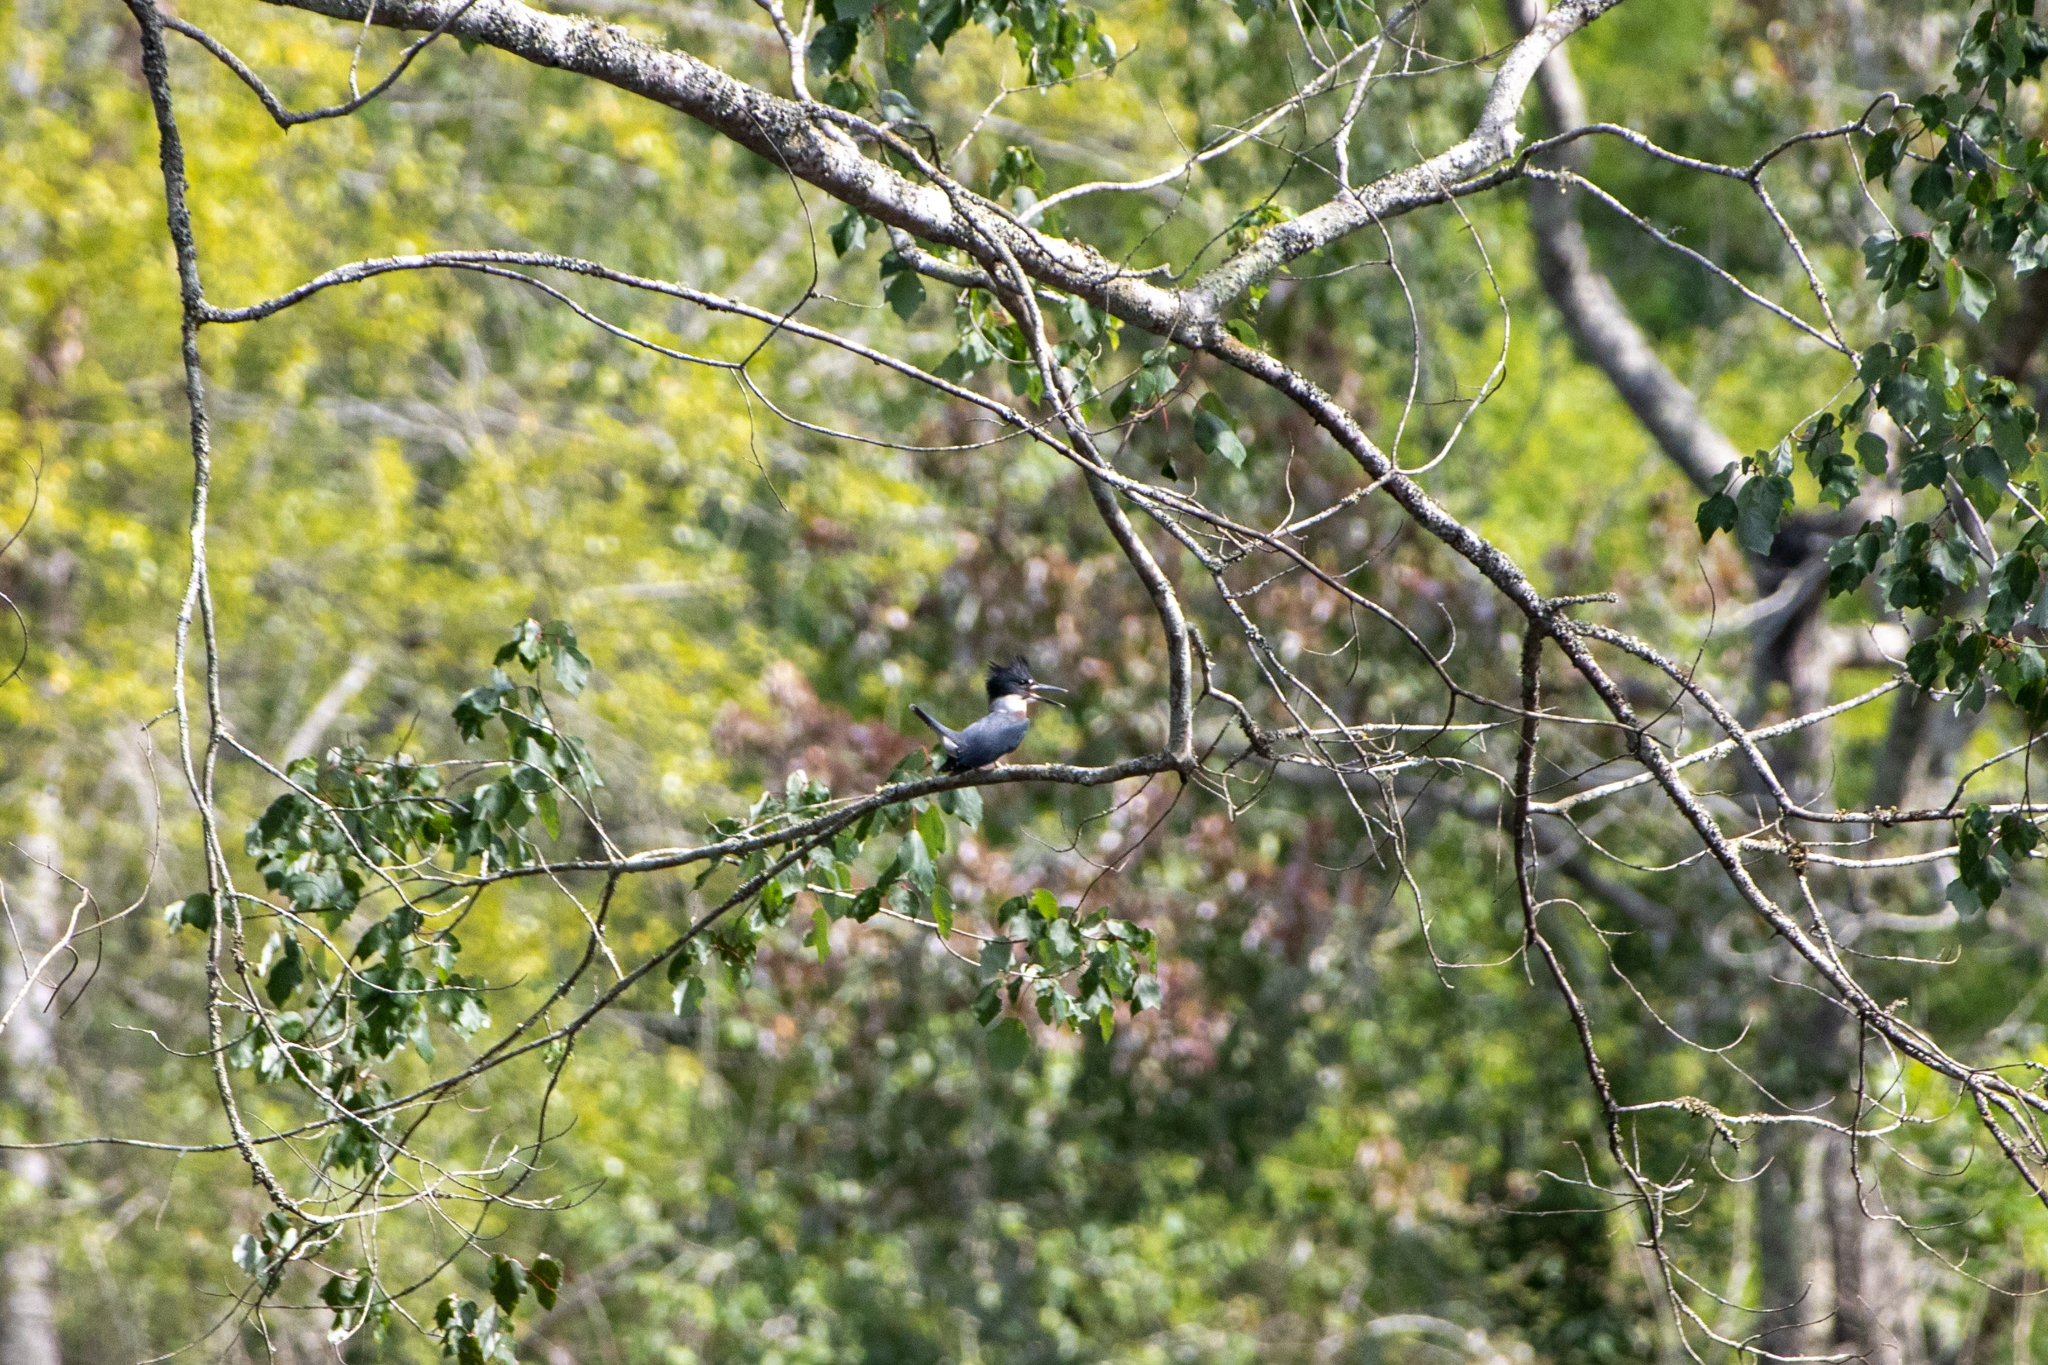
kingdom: Animalia
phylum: Chordata
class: Aves
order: Coraciiformes
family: Alcedinidae
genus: Megaceryle
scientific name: Megaceryle alcyon
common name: Belted kingfisher
